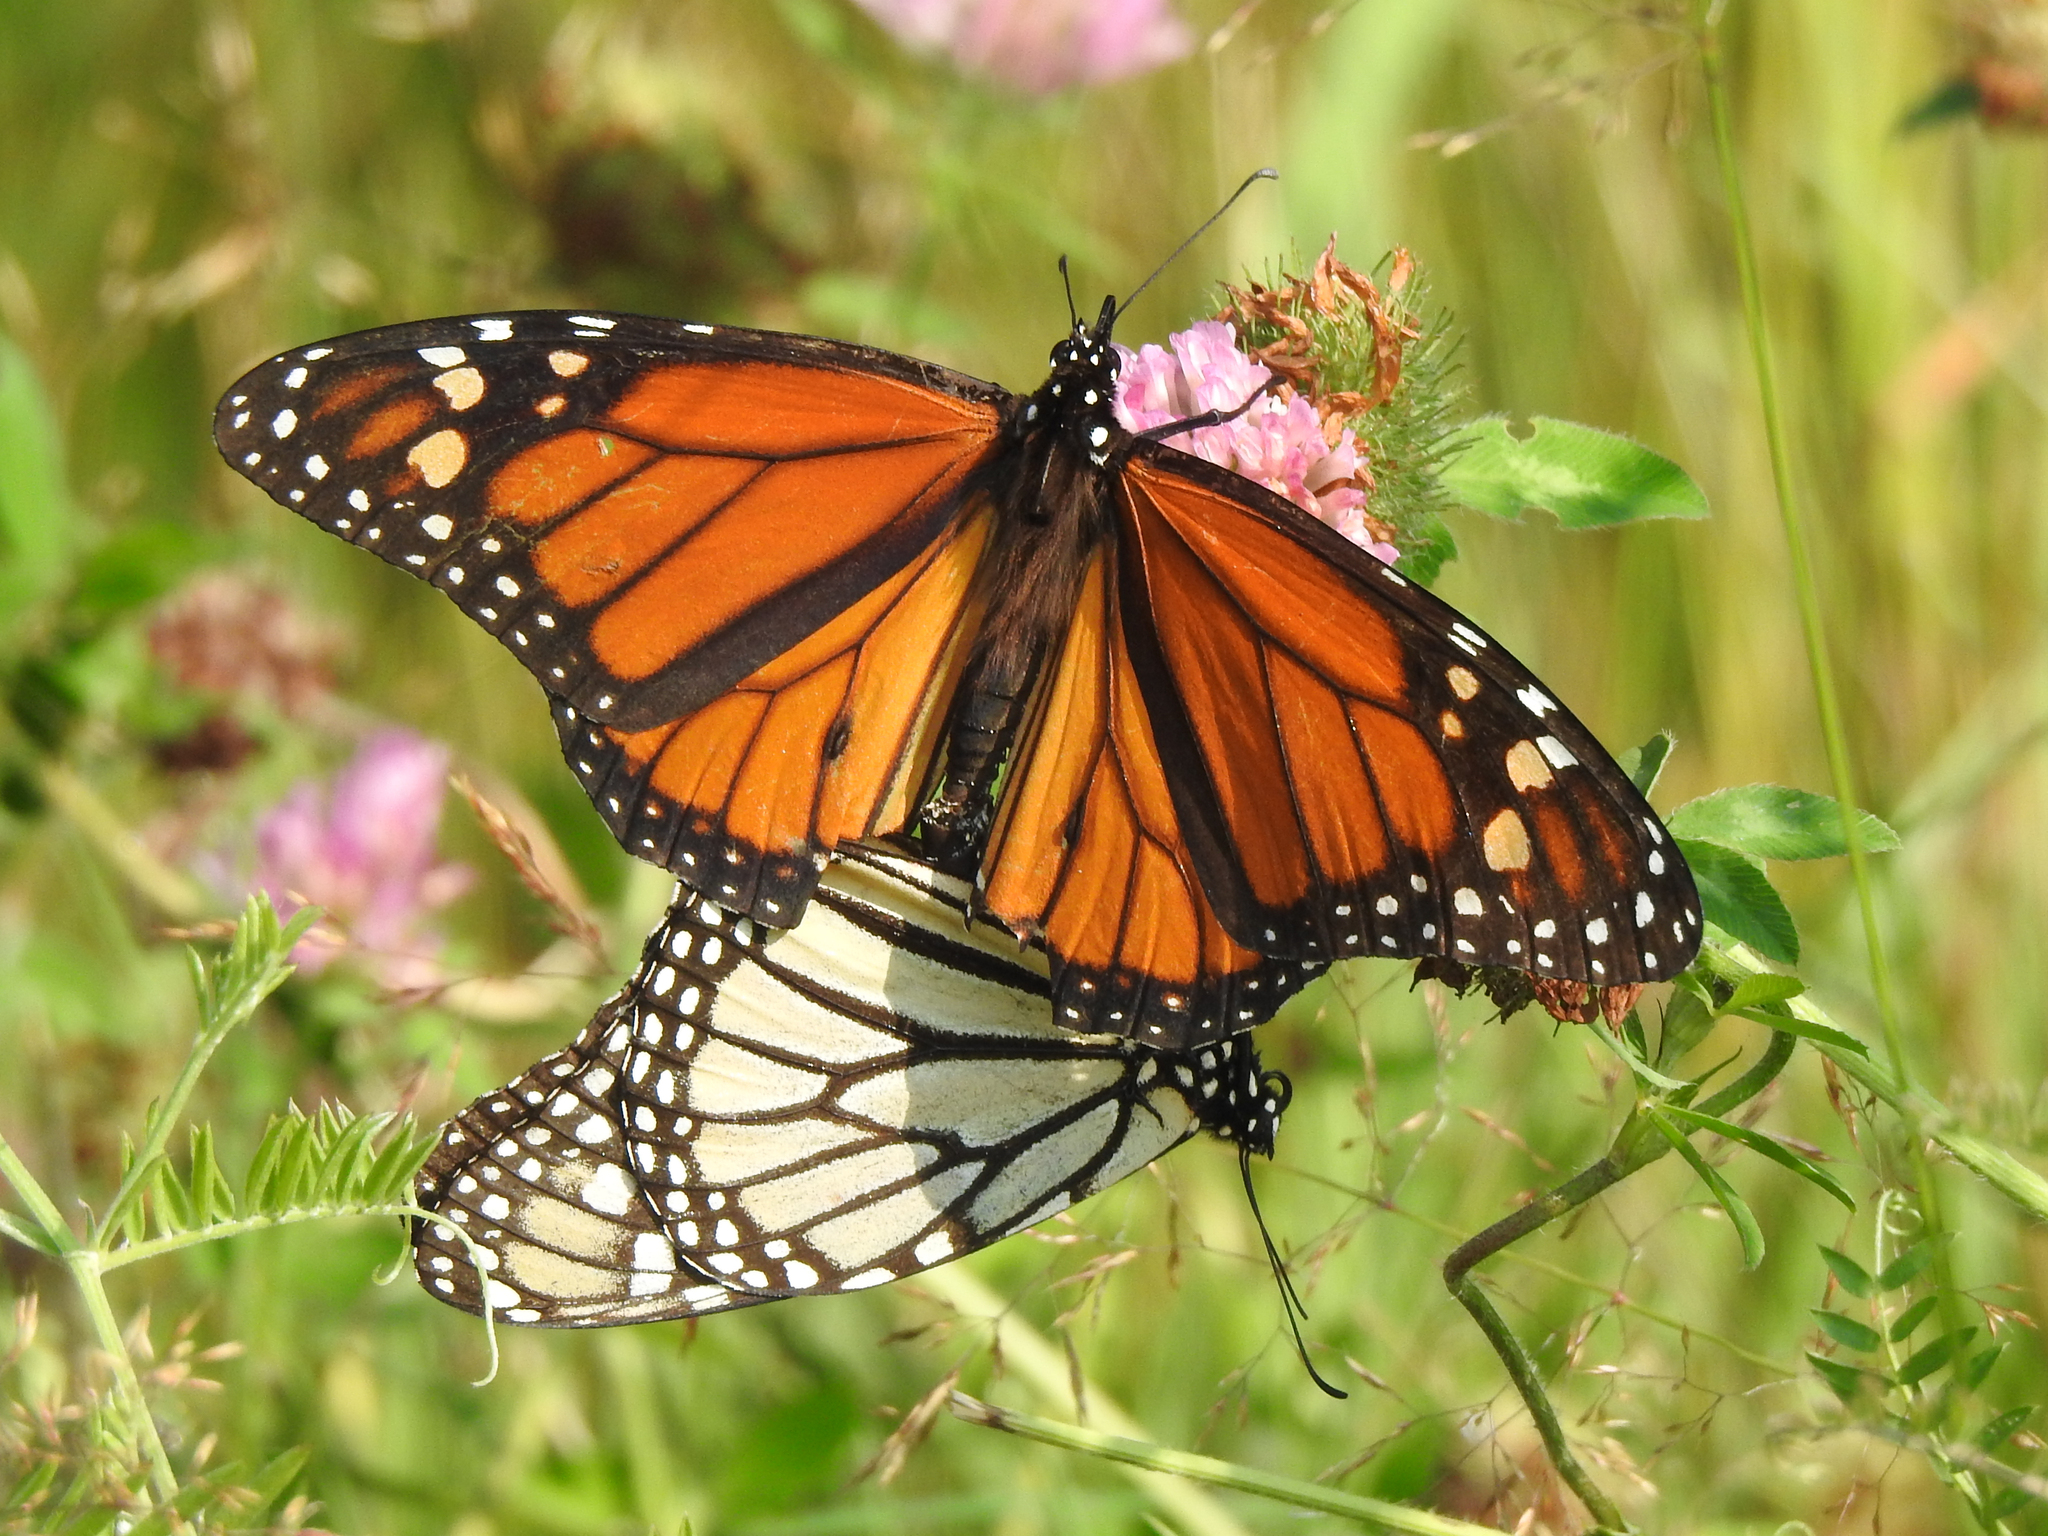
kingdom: Animalia
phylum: Arthropoda
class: Insecta
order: Lepidoptera
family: Nymphalidae
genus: Danaus
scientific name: Danaus plexippus
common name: Monarch
